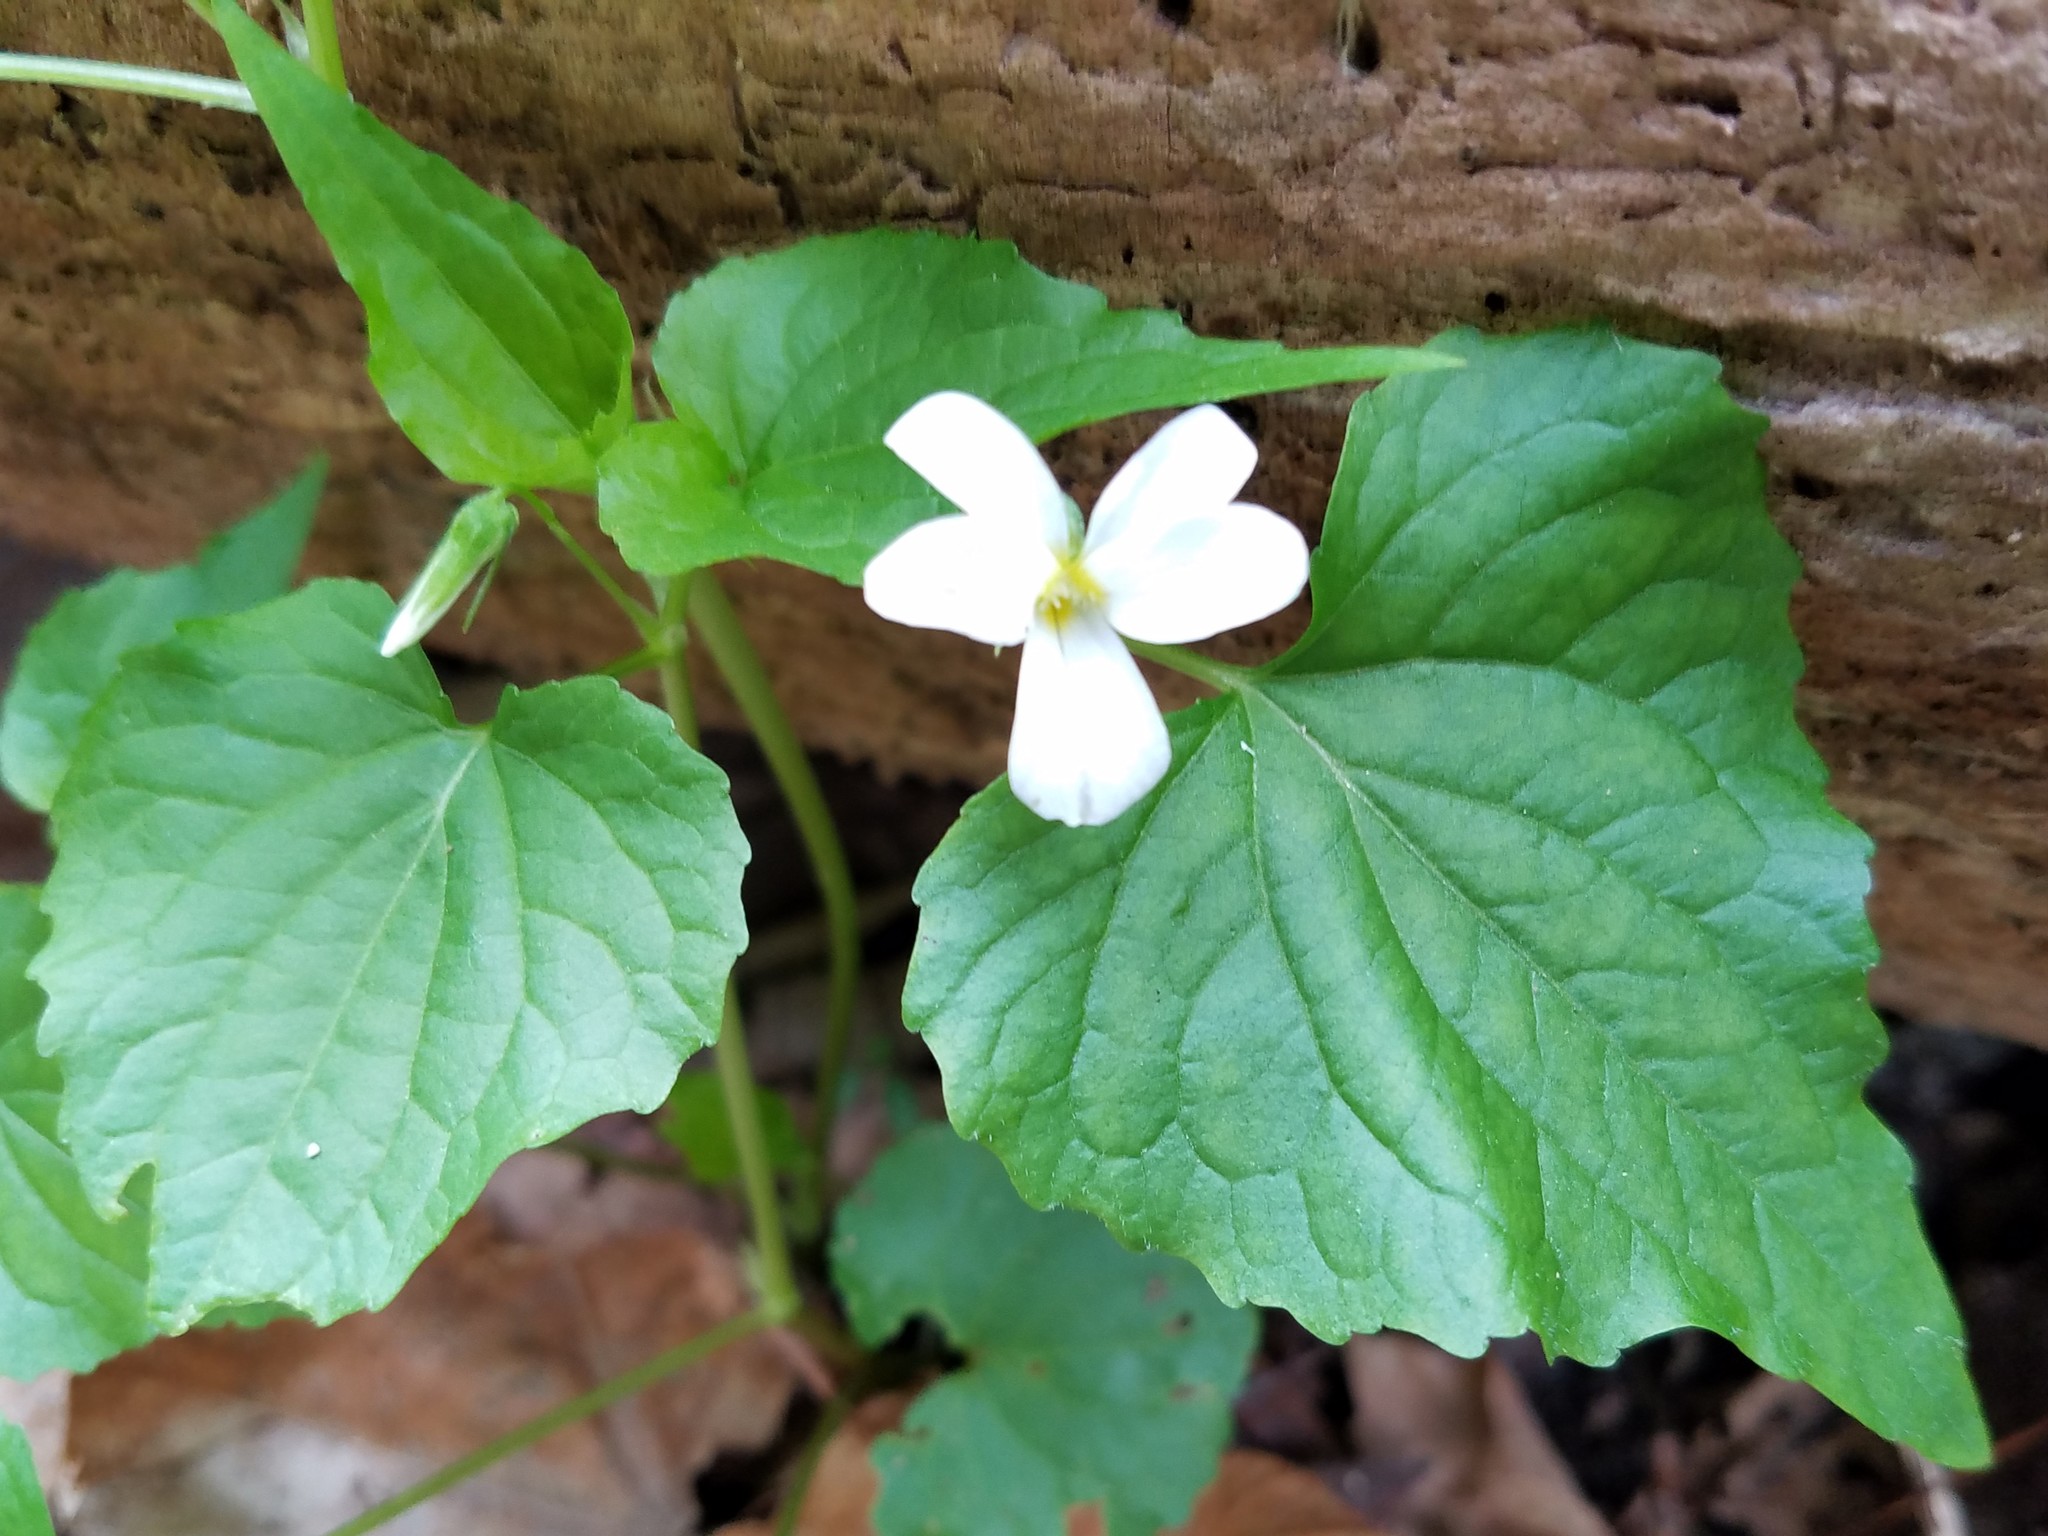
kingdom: Plantae
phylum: Tracheophyta
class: Magnoliopsida
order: Malpighiales
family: Violaceae
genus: Viola
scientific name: Viola canadensis
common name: Canada violet
